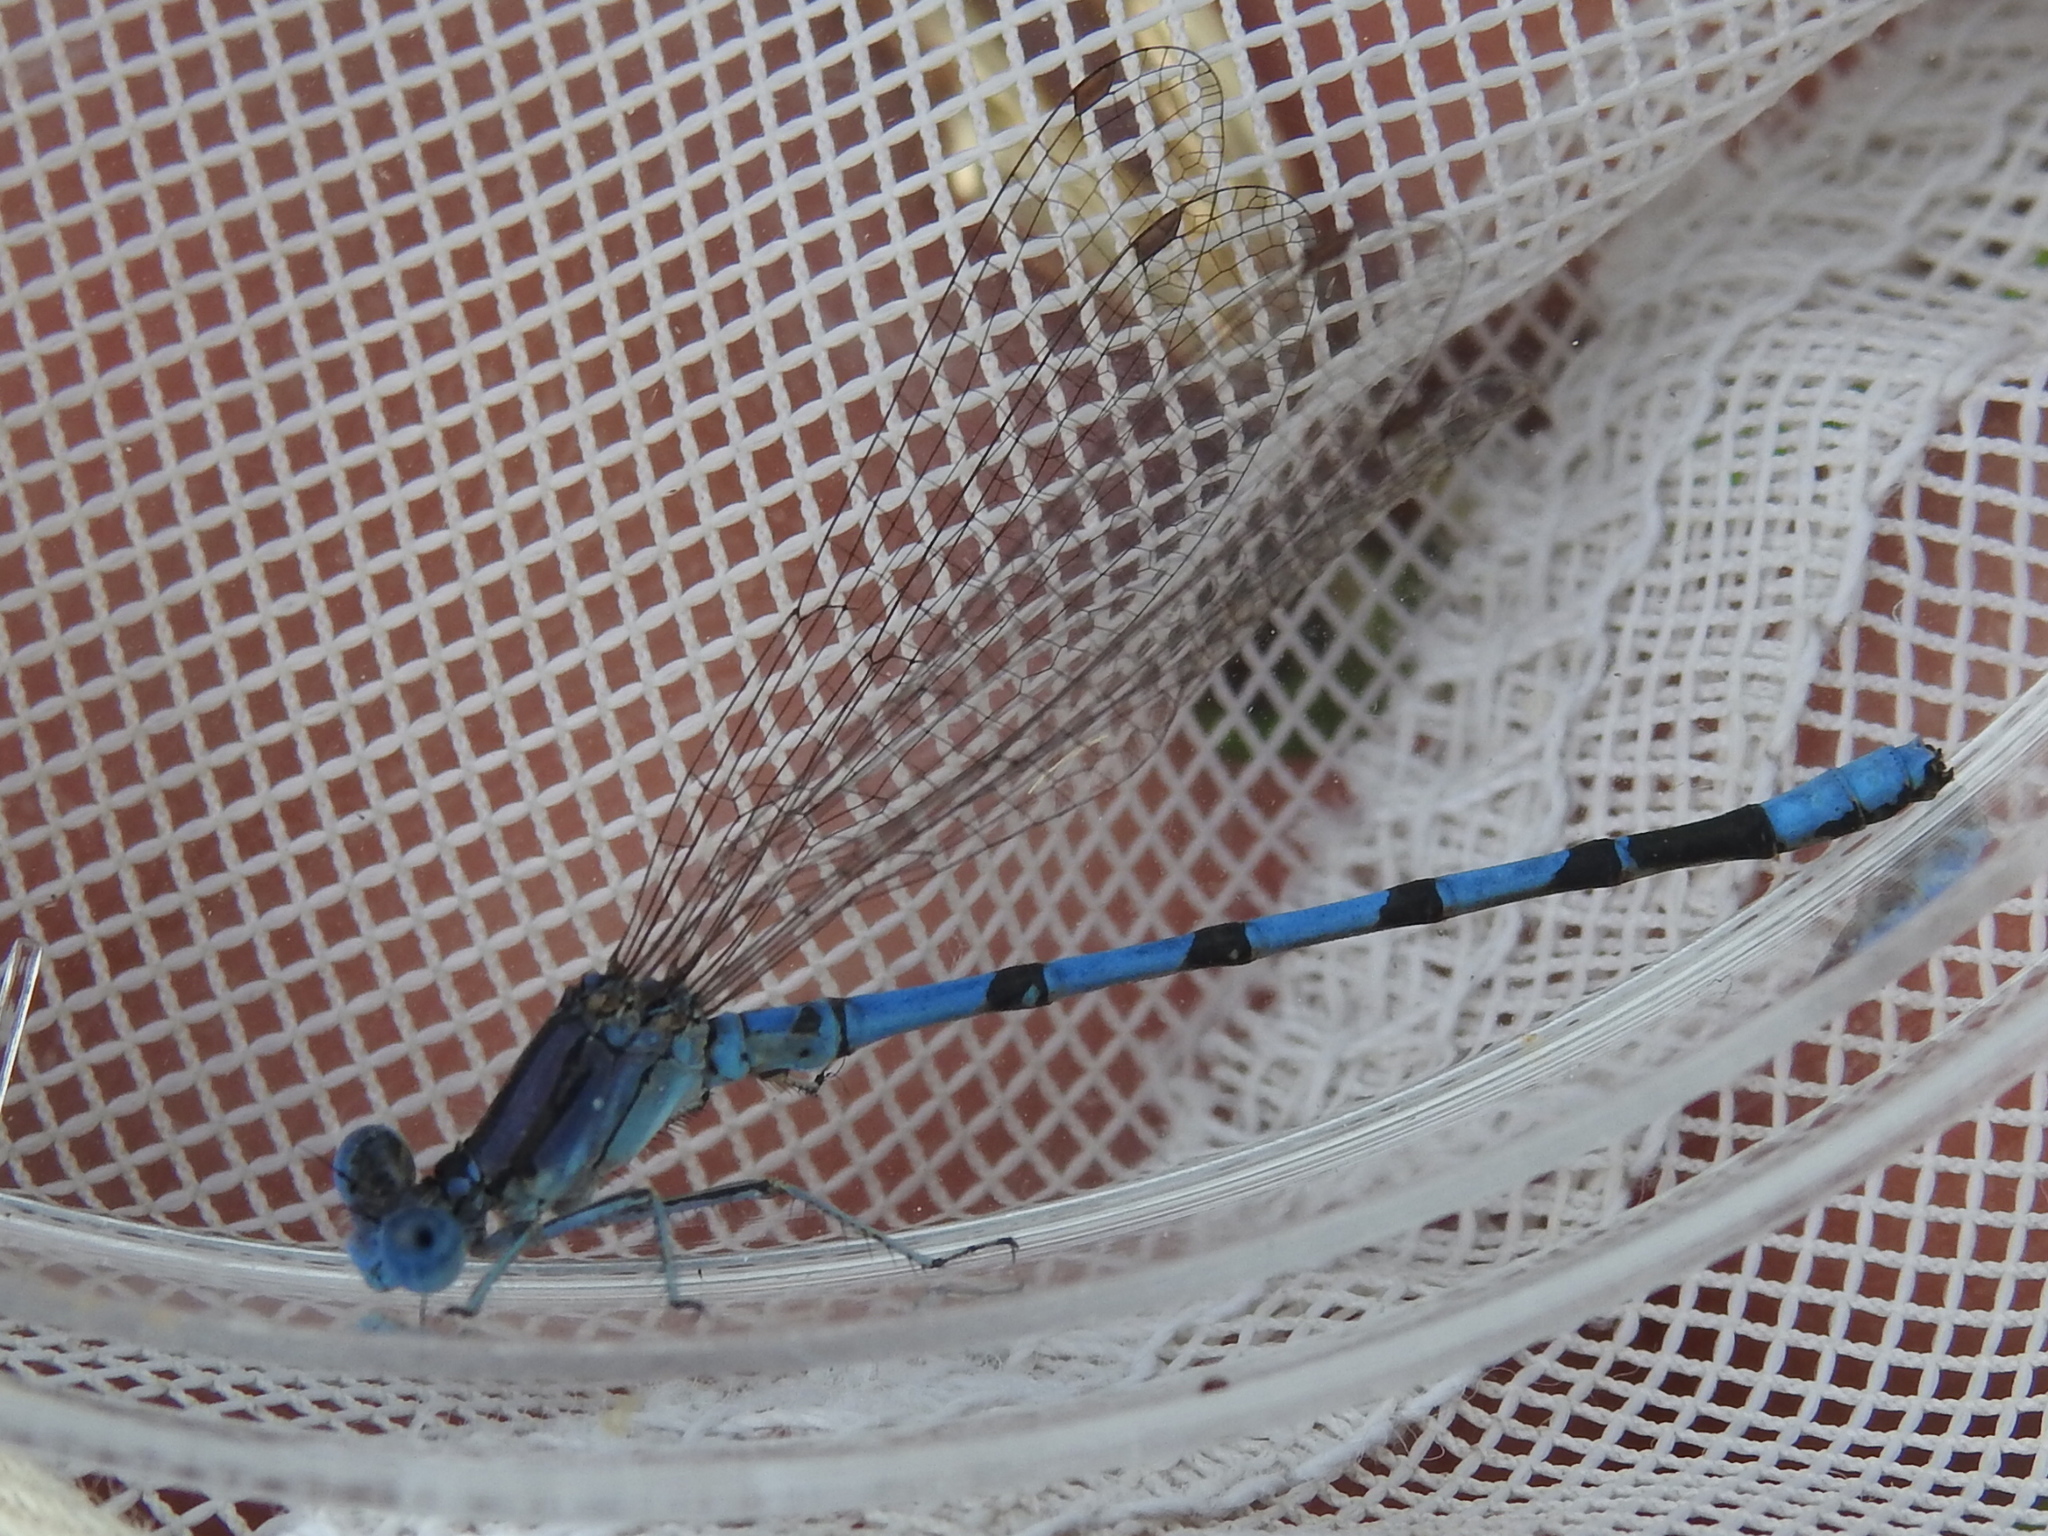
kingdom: Animalia
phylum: Arthropoda
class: Insecta
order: Odonata
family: Coenagrionidae
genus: Argia
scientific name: Argia nahuana
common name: Aztec dancer
